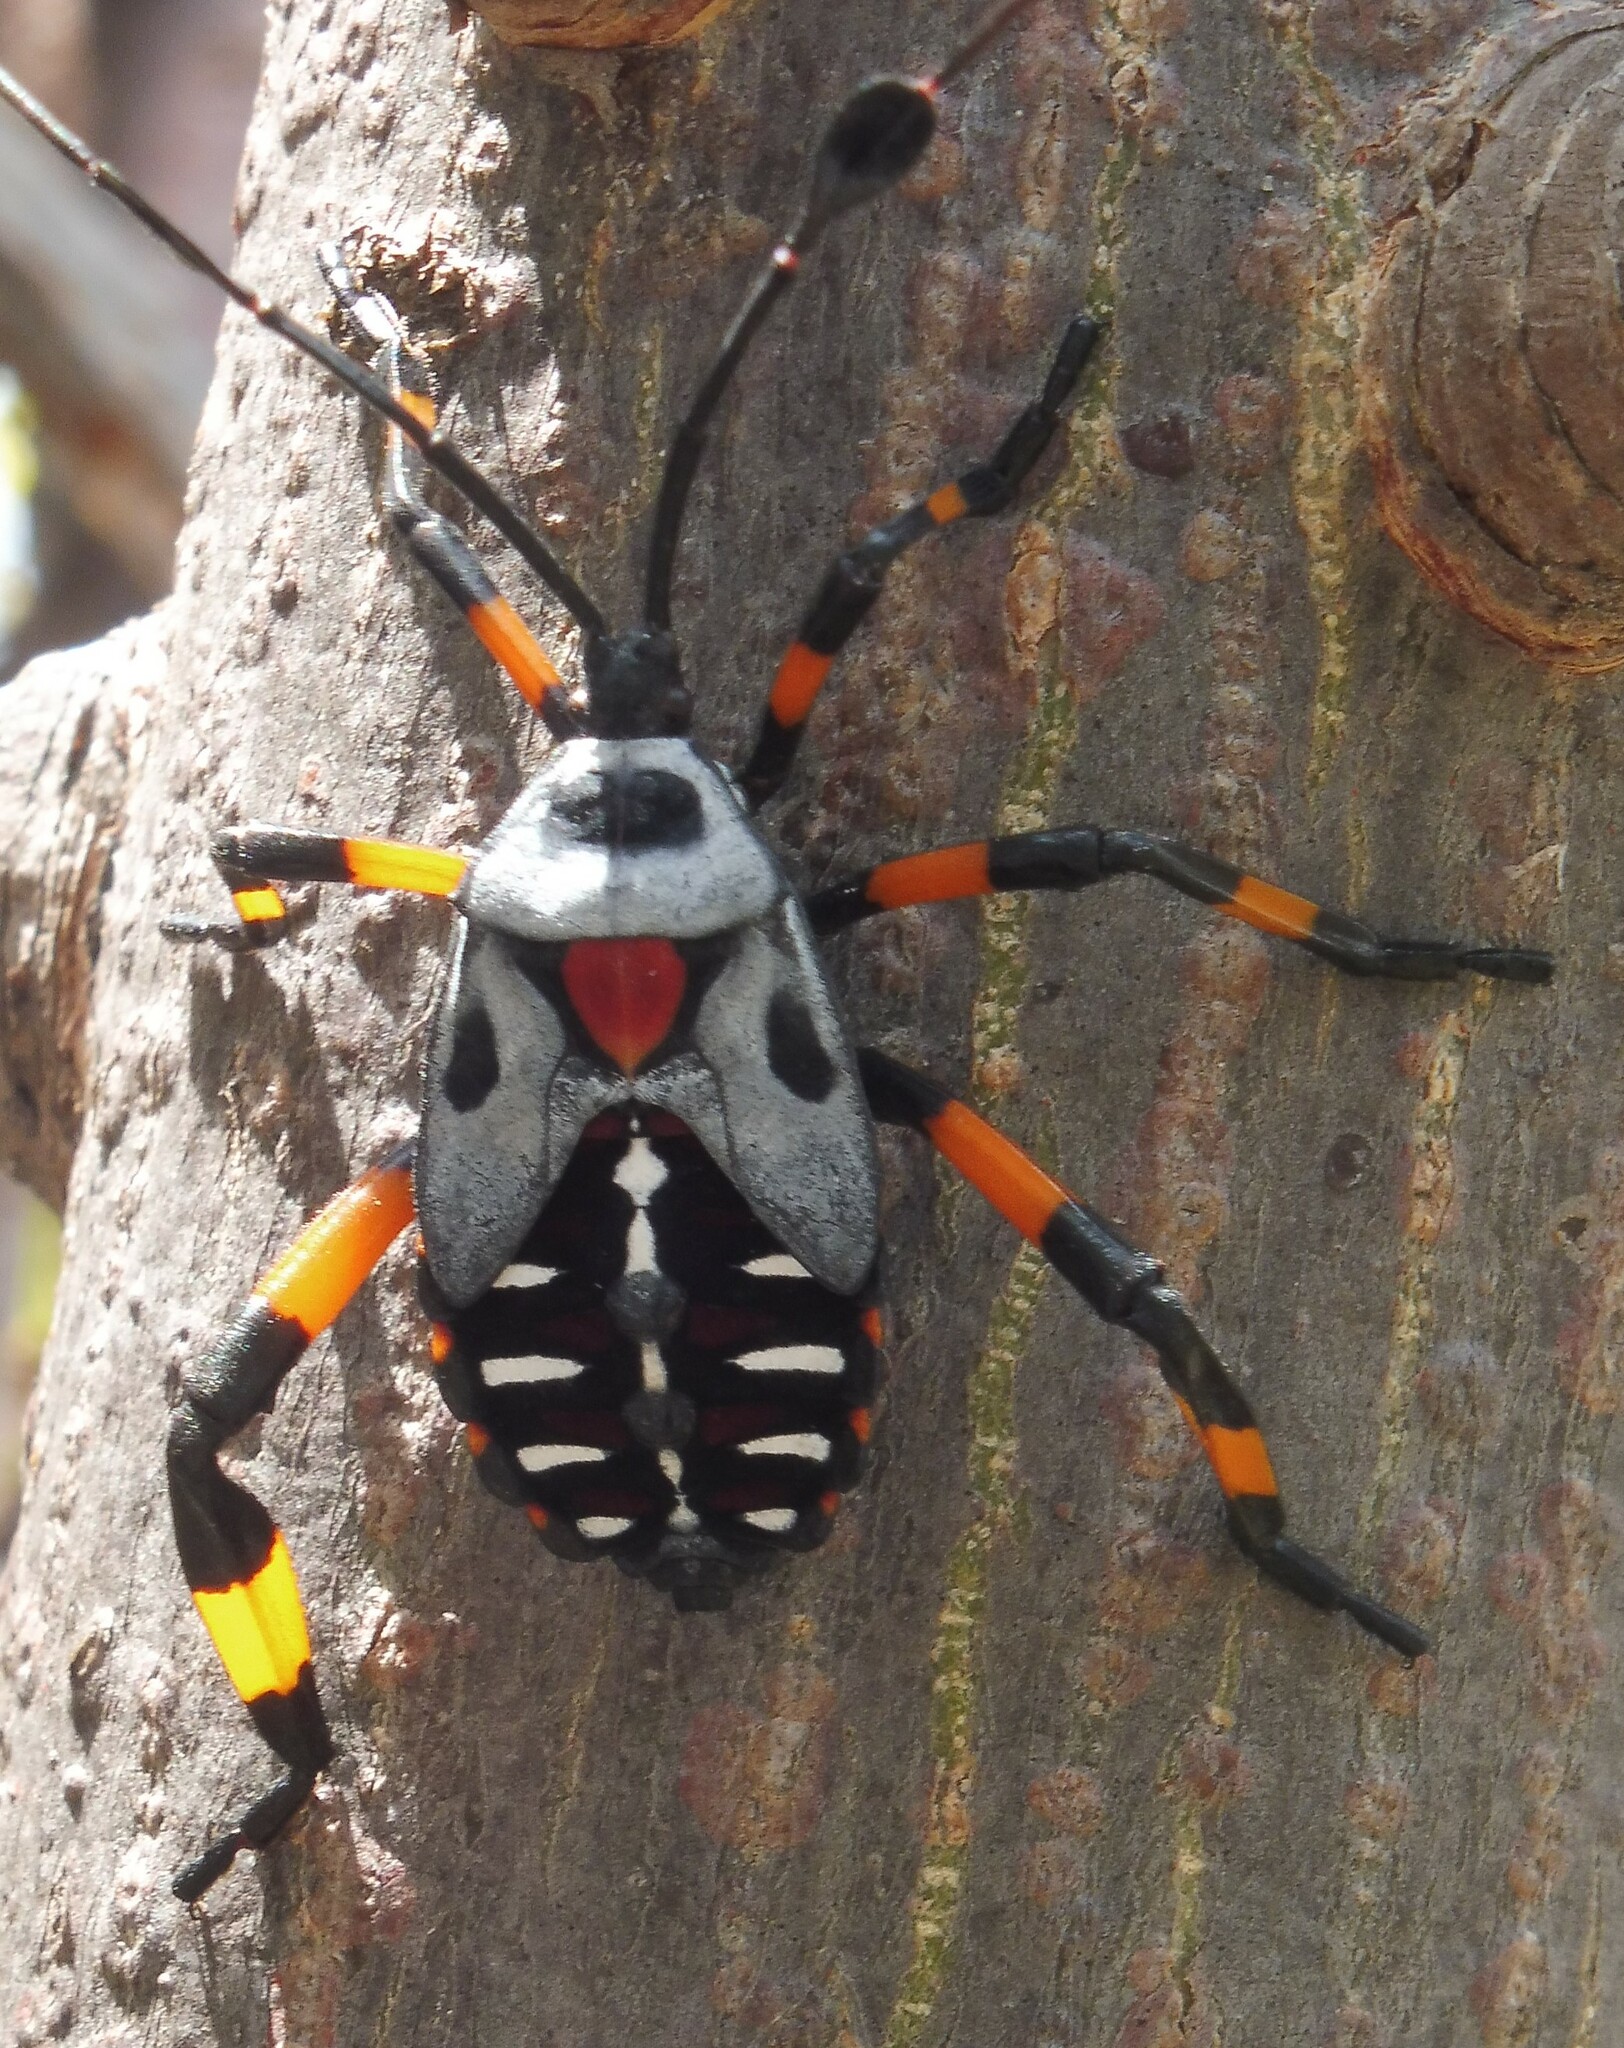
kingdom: Animalia
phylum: Arthropoda
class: Insecta
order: Hemiptera
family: Coreidae
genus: Thasus
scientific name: Thasus
